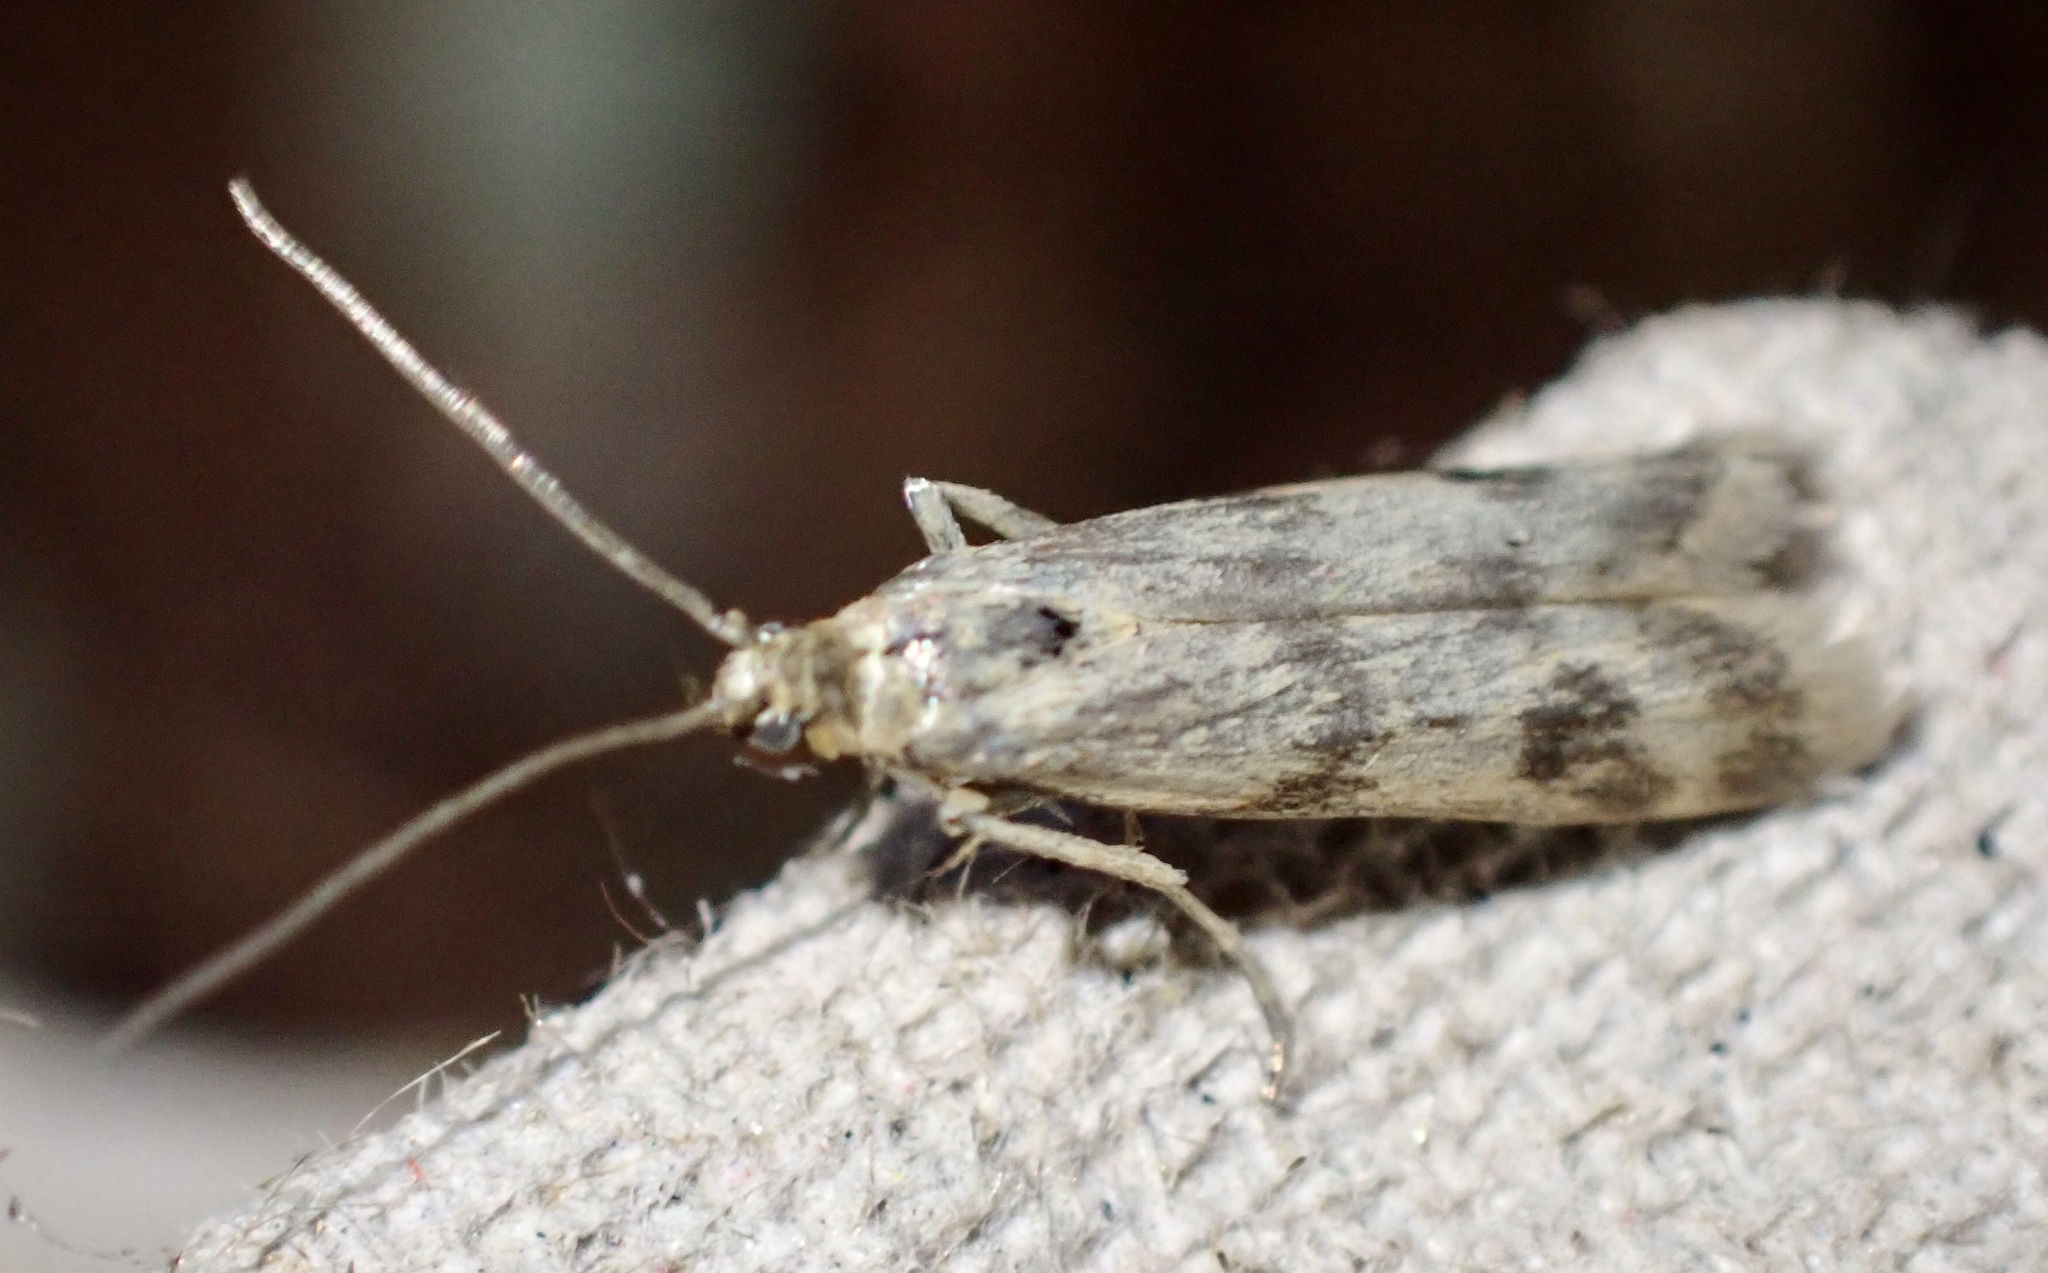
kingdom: Animalia
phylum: Arthropoda
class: Insecta
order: Lepidoptera
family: Pyralidae
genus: Homoeosoma
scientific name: Homoeosoma sinuella
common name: Twin-barred knot-horn
